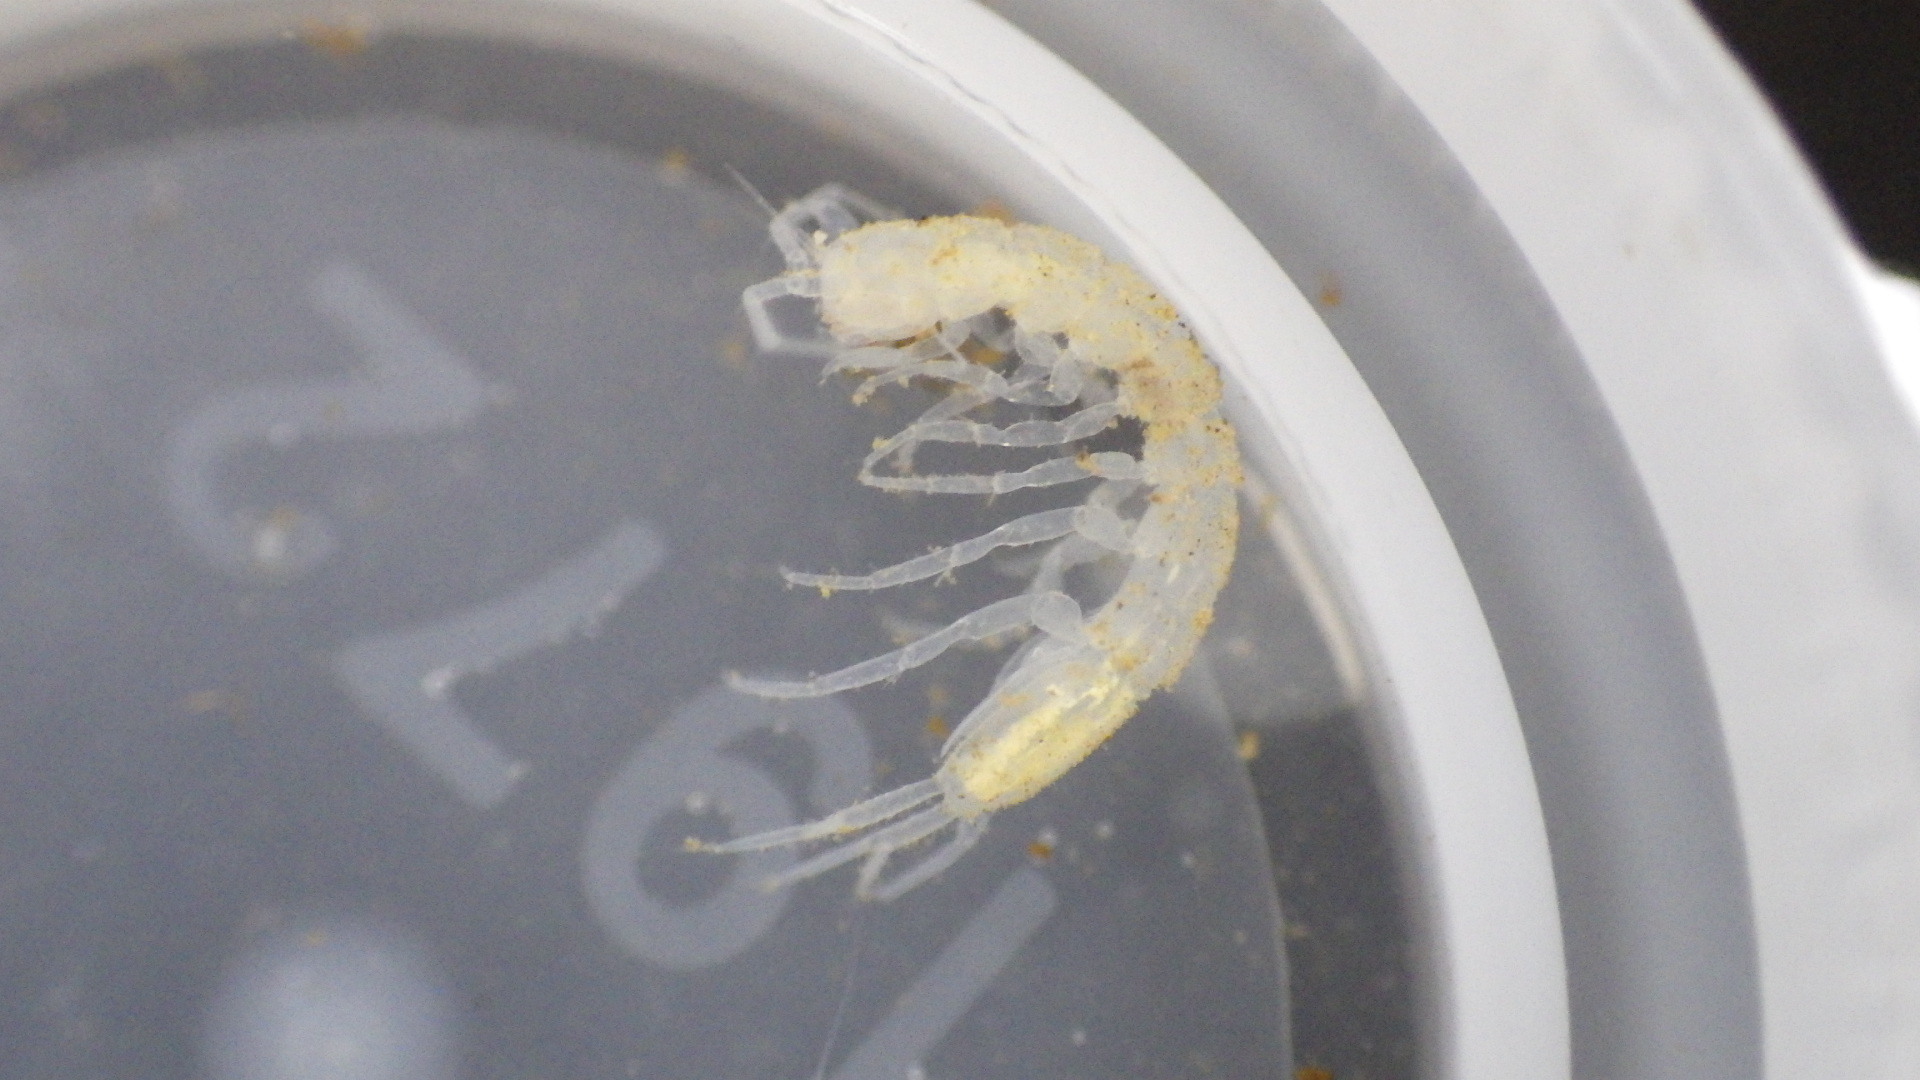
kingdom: Animalia
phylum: Arthropoda
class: Malacostraca
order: Isopoda
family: Asellidae
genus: Caecidotea
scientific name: Caecidotea pricei
